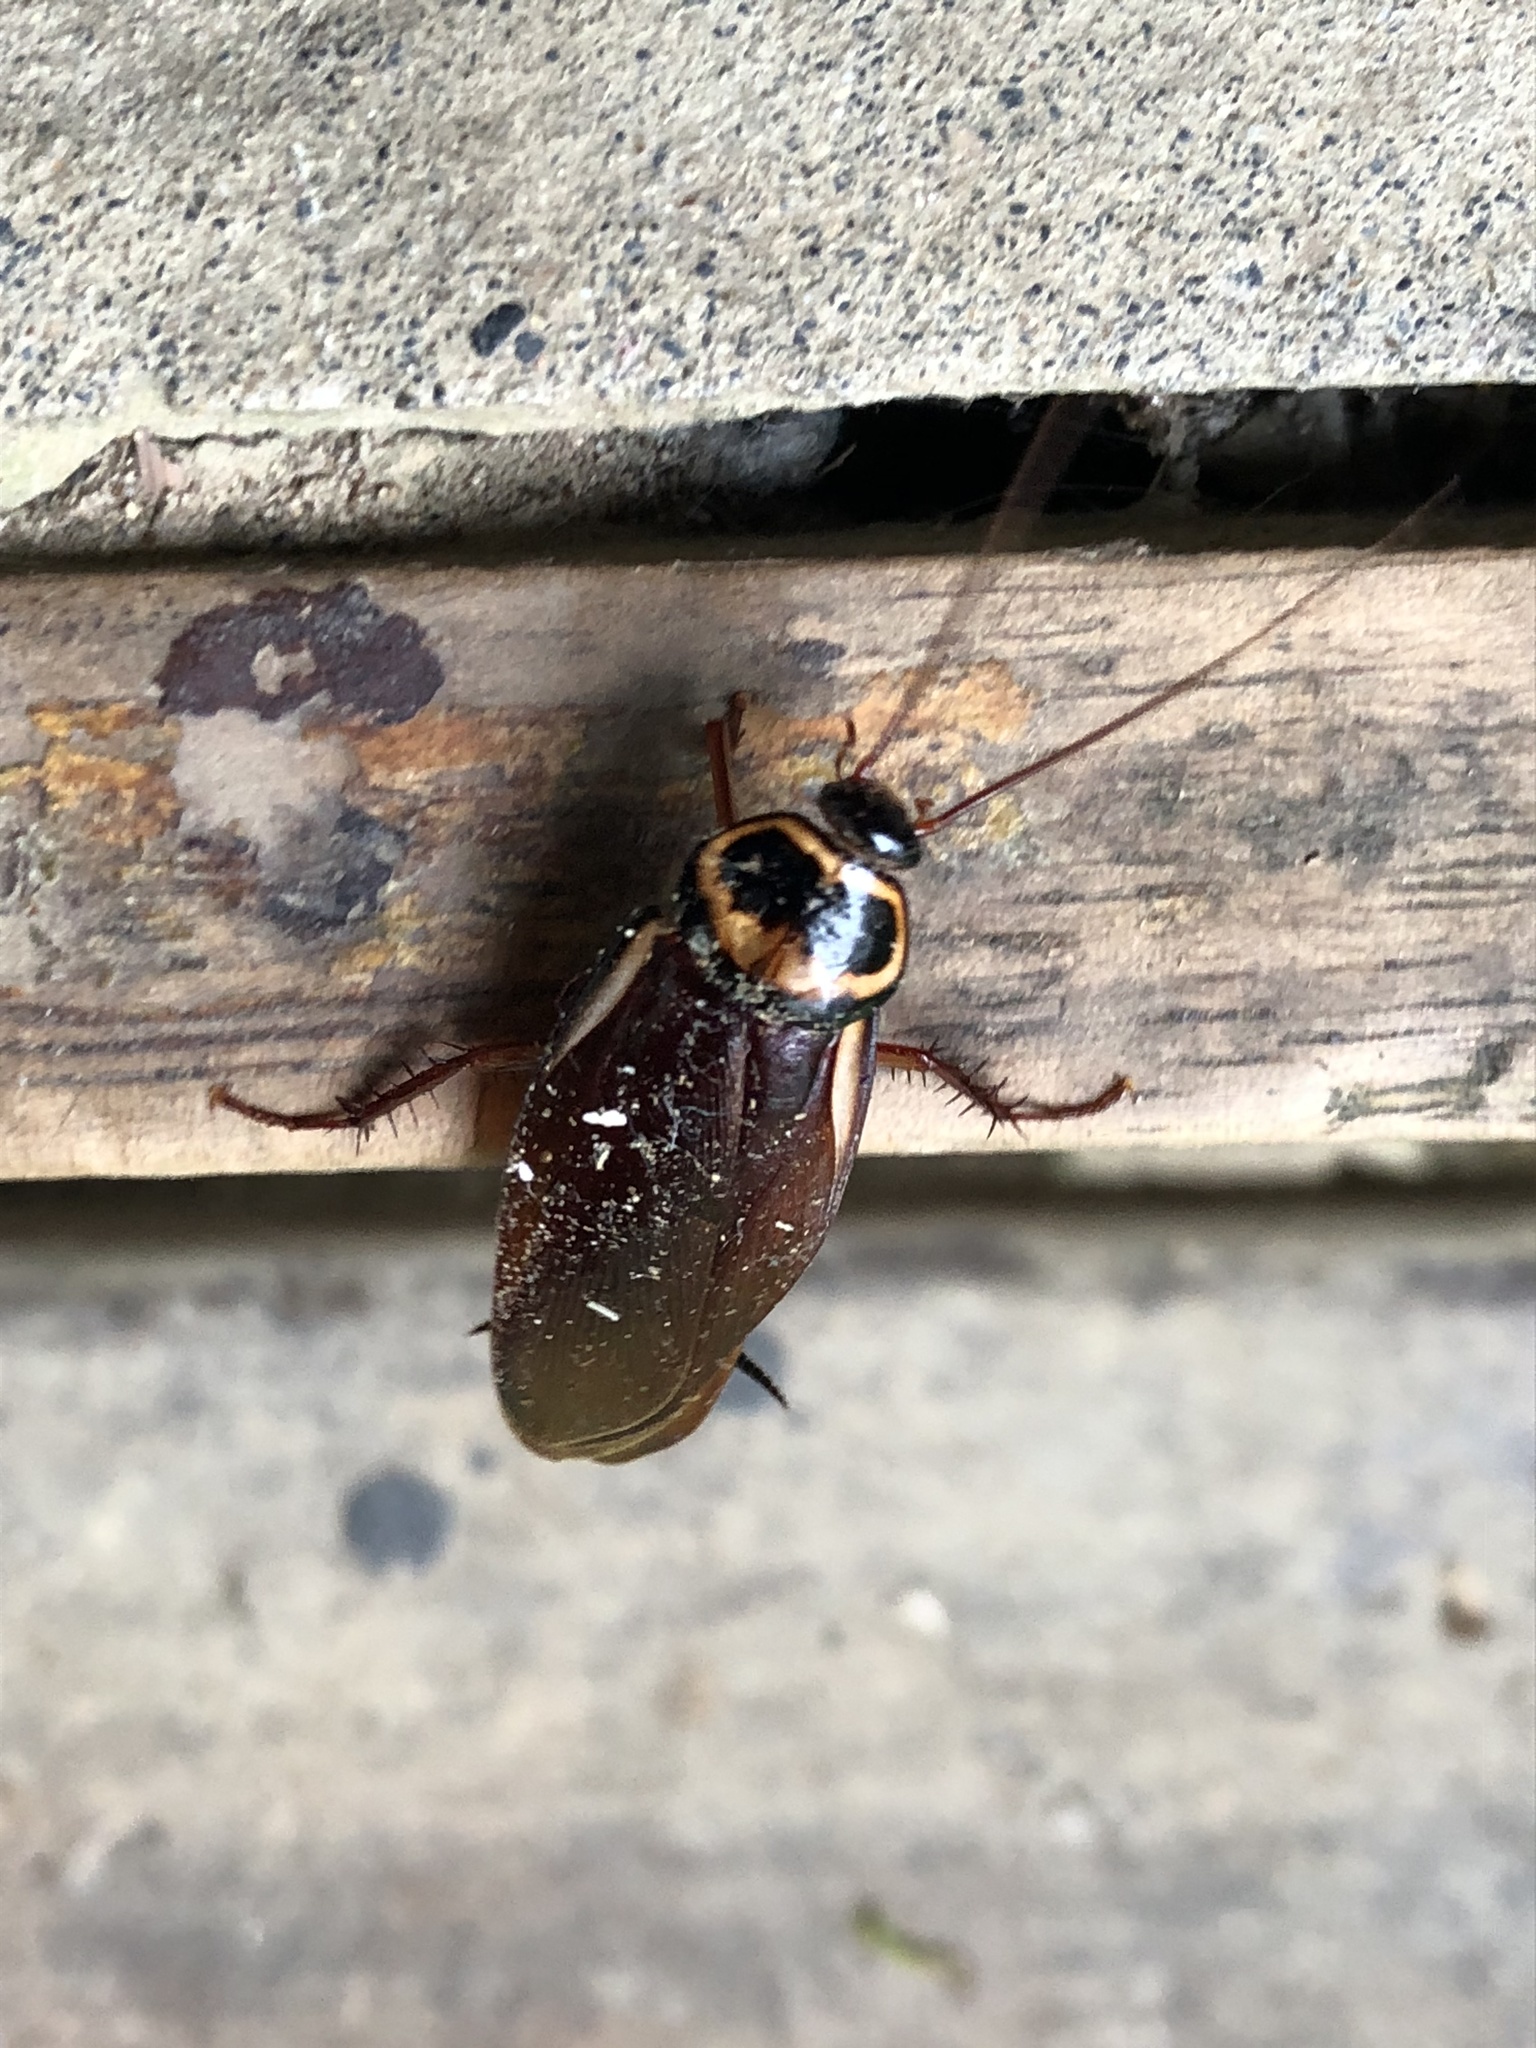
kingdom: Animalia
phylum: Arthropoda
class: Insecta
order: Blattodea
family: Blattidae
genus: Periplaneta
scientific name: Periplaneta australasiae
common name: Australian cockroach
